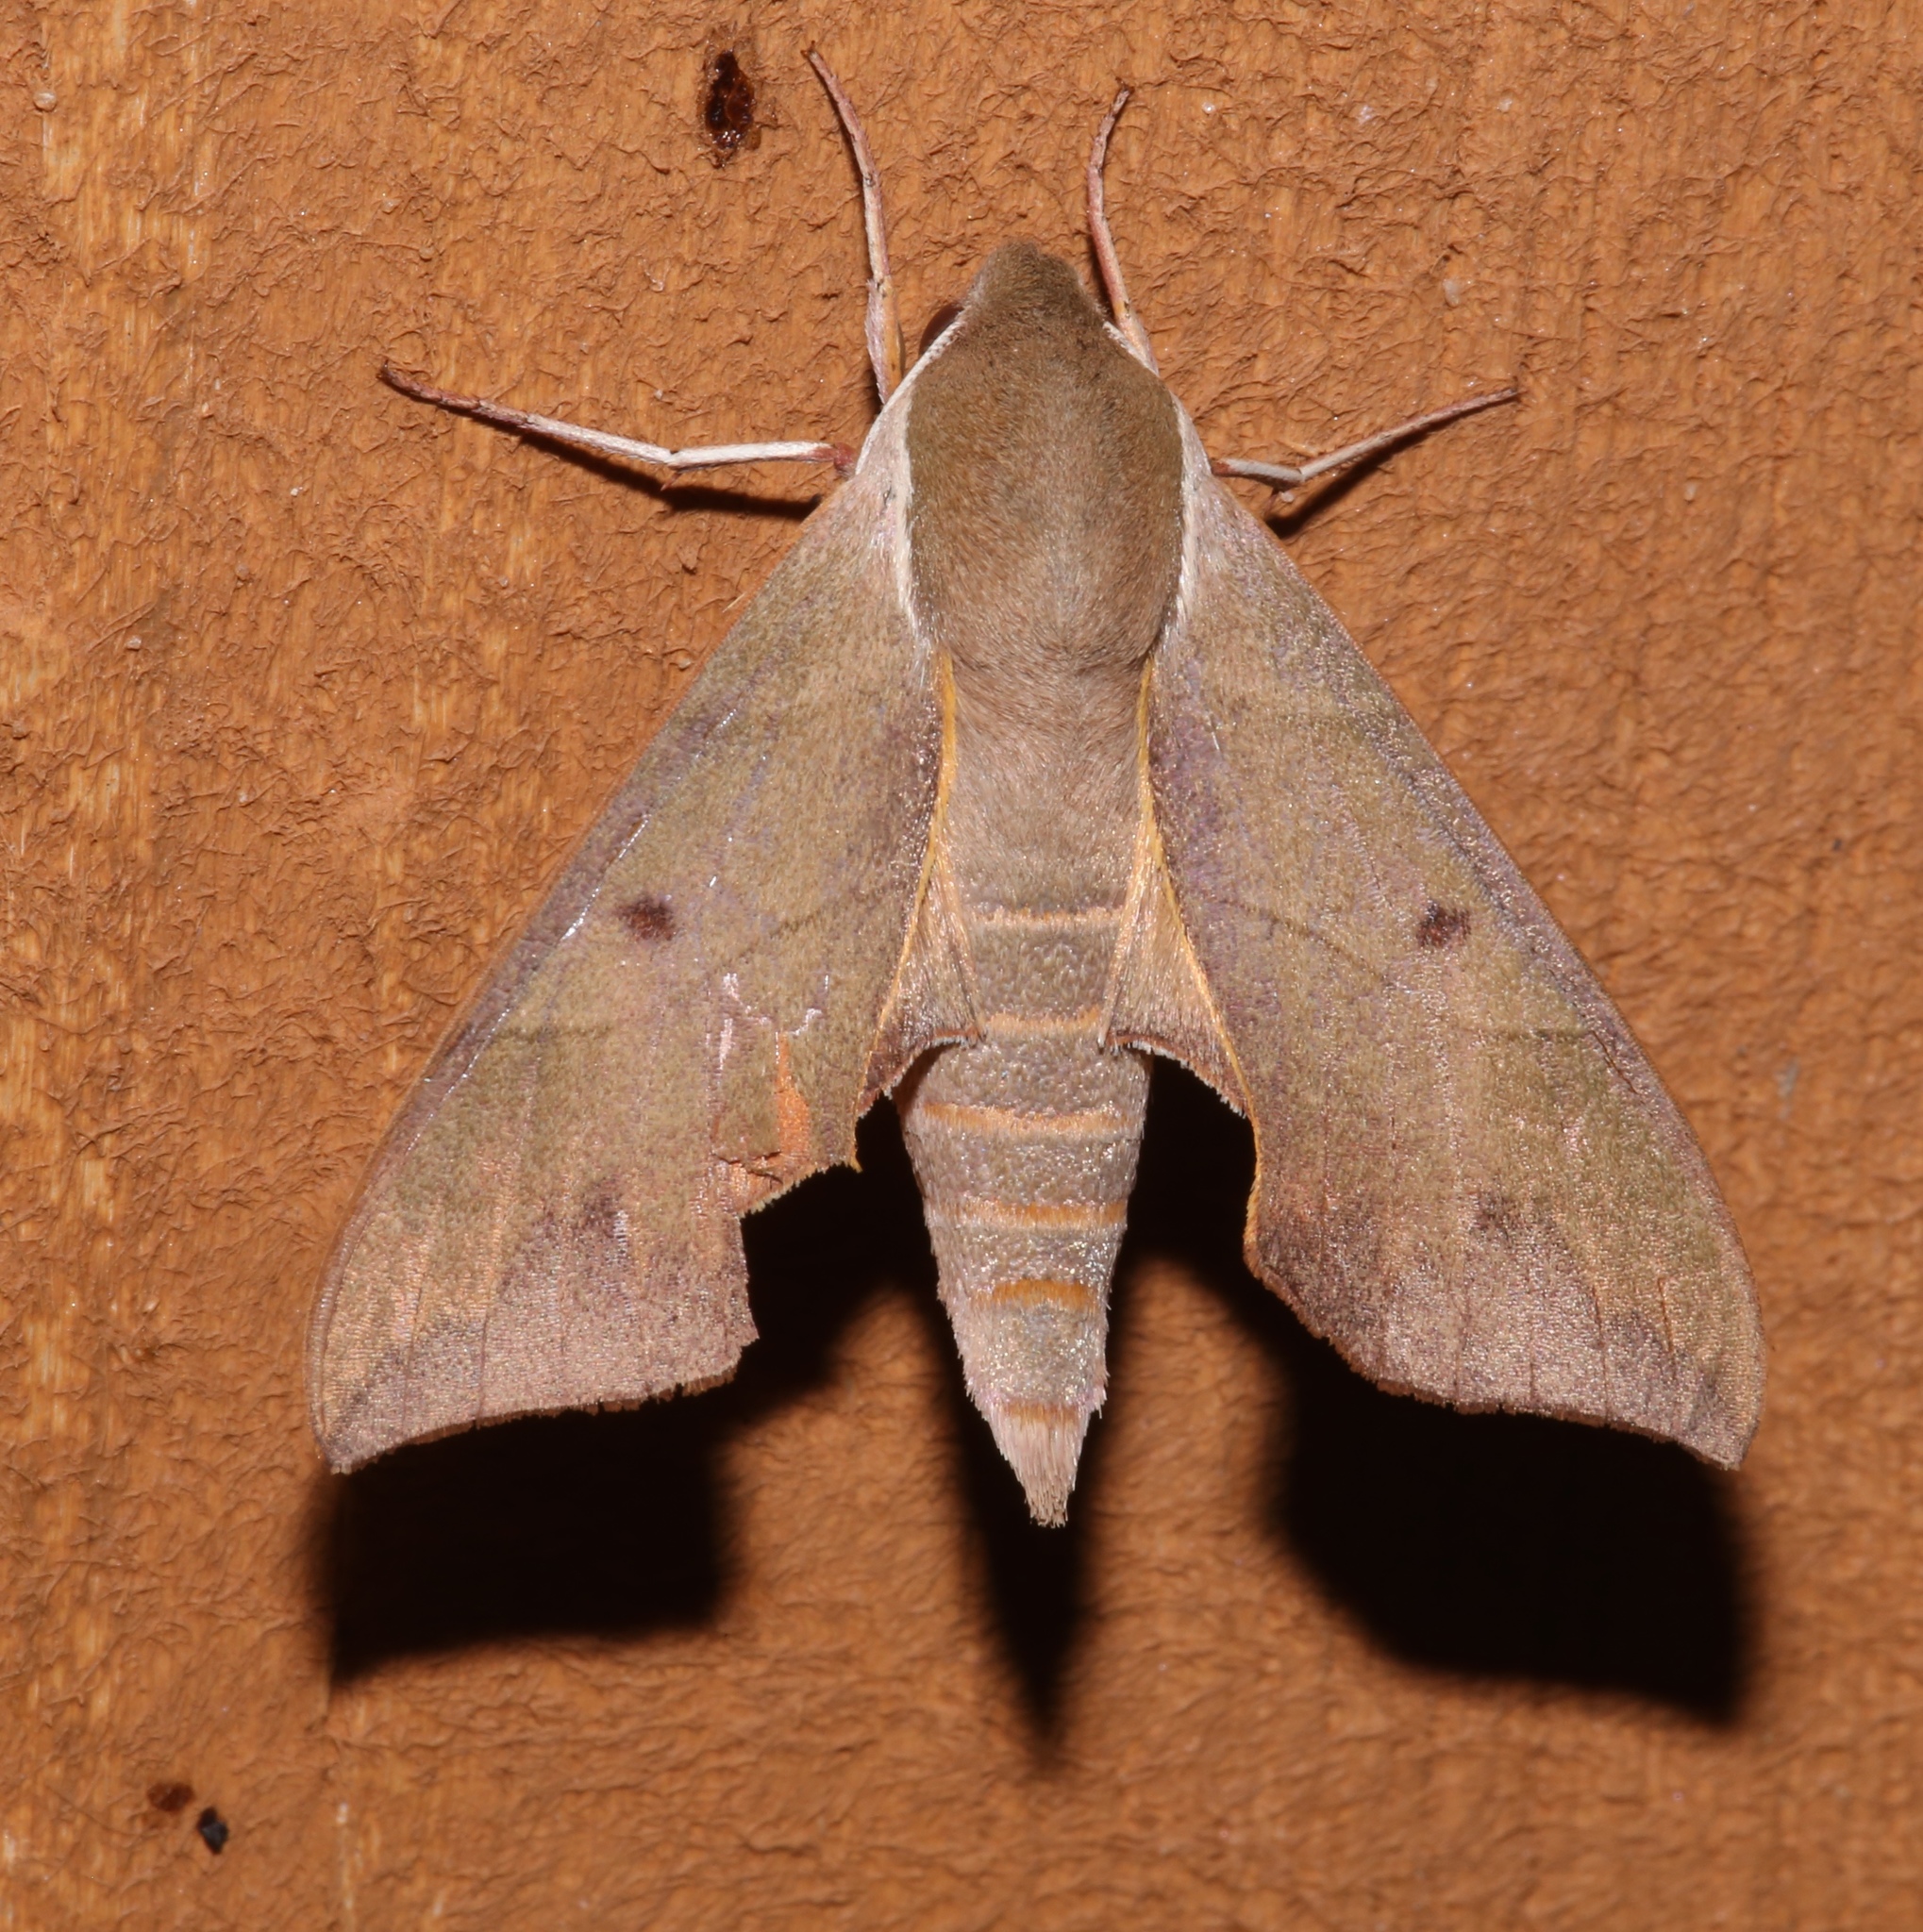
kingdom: Animalia
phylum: Arthropoda
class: Insecta
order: Lepidoptera
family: Sphingidae
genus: Darapsa
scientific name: Darapsa myron
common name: Hog sphinx
